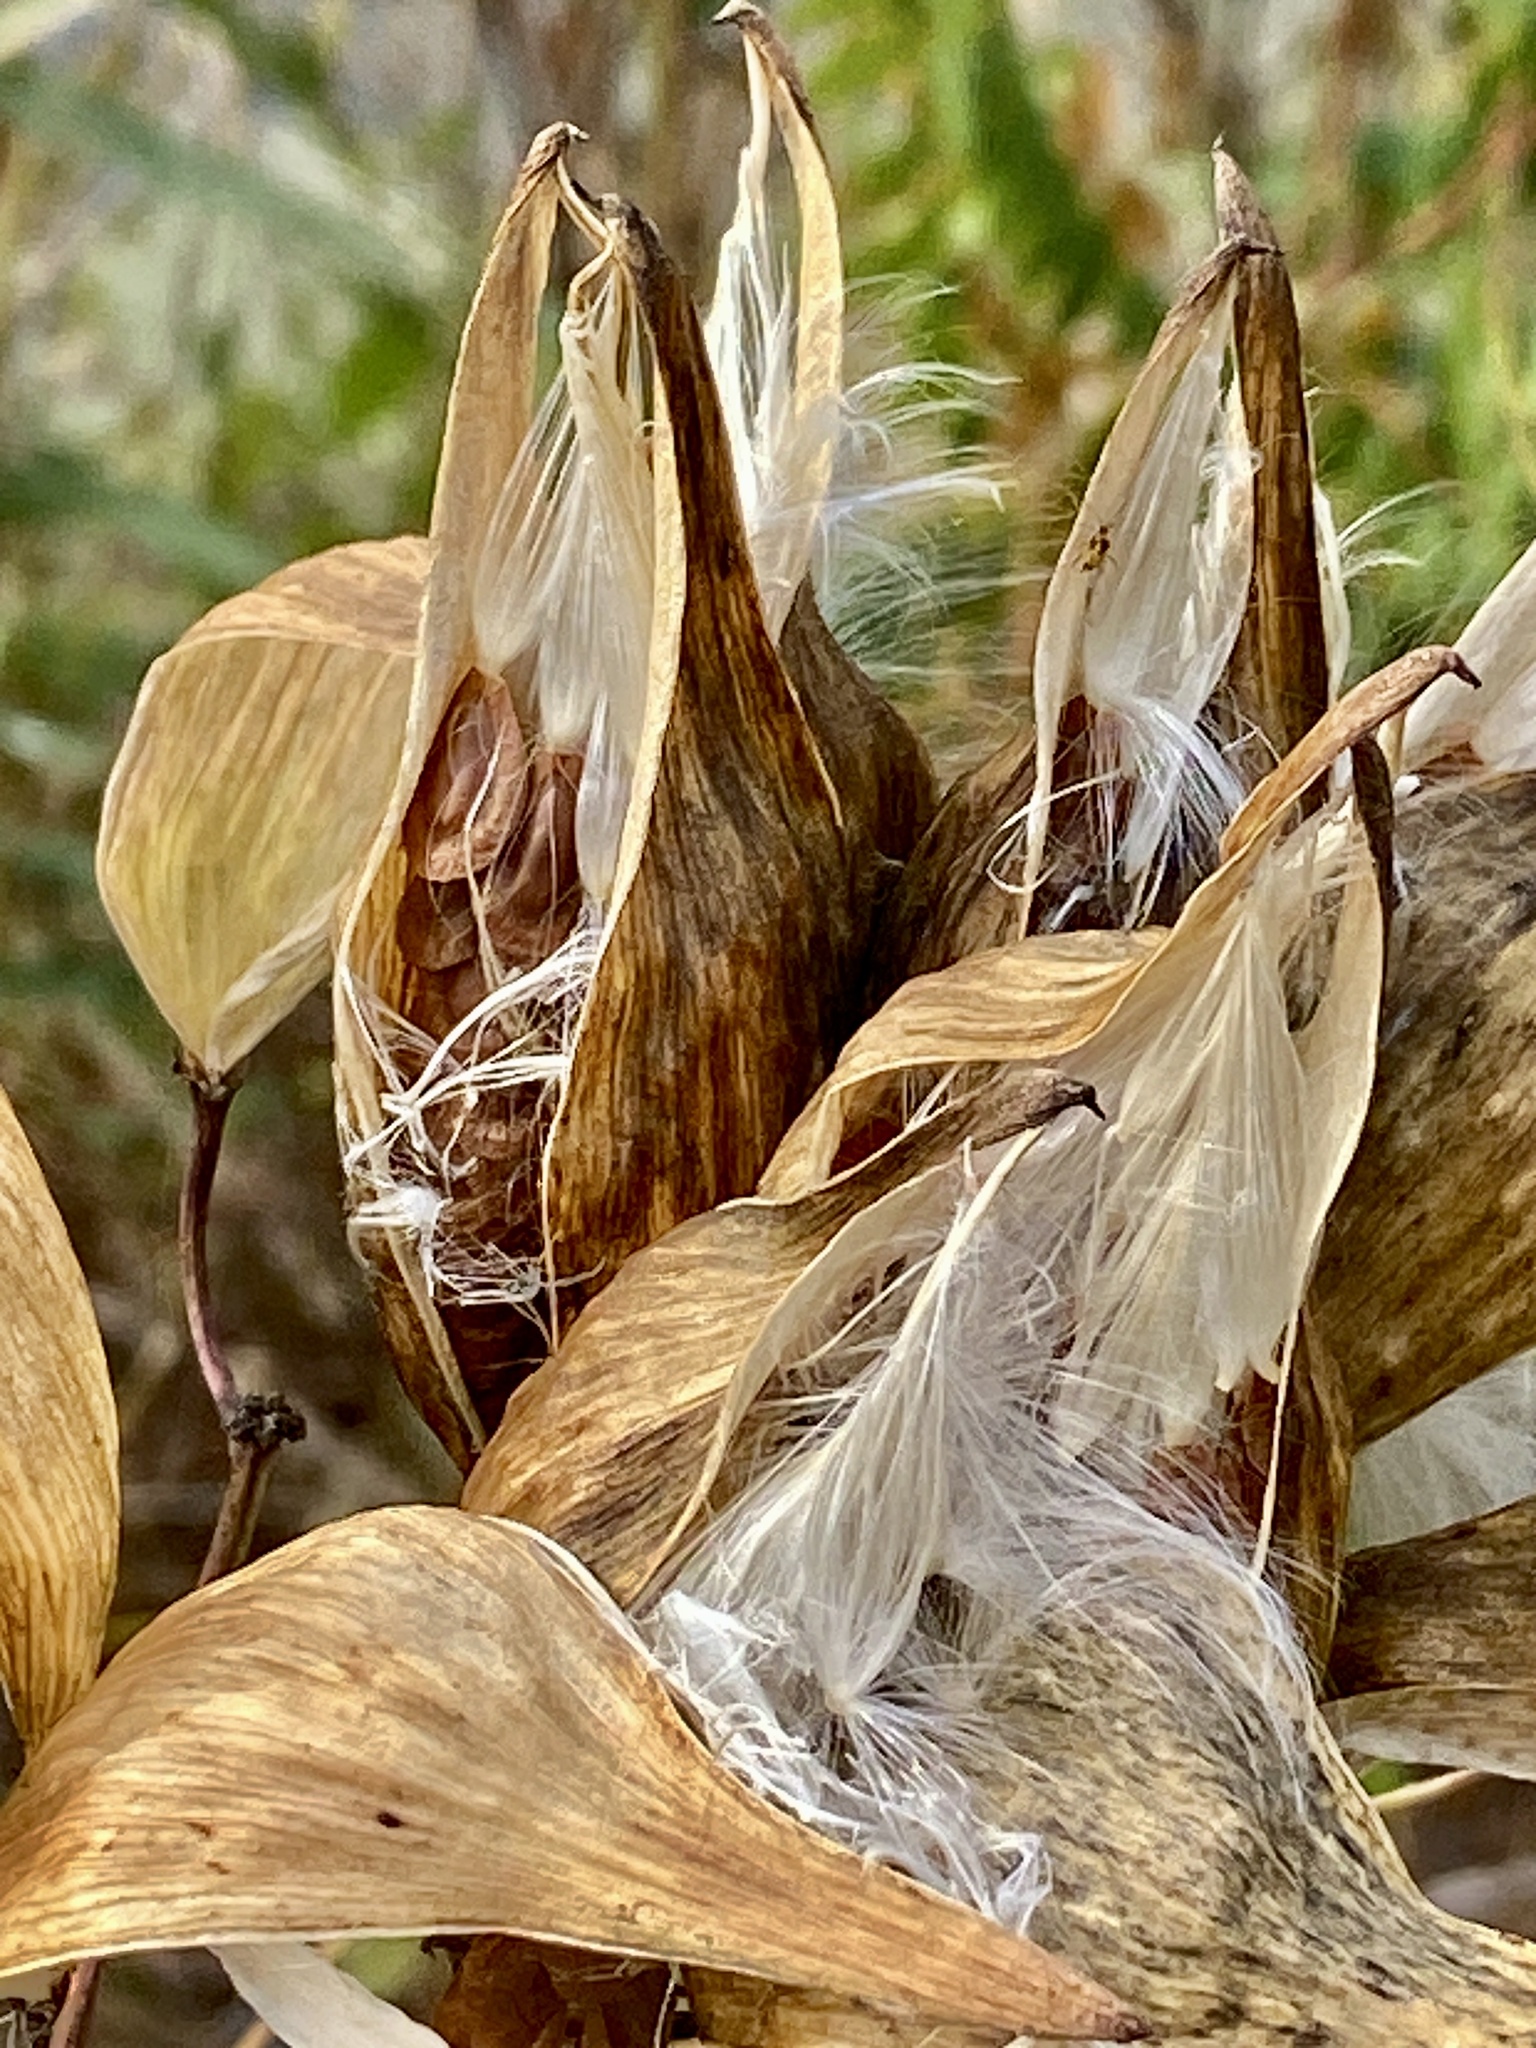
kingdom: Plantae
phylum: Tracheophyta
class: Magnoliopsida
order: Gentianales
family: Apocynaceae
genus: Asclepias
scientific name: Asclepias syriaca
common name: Common milkweed
